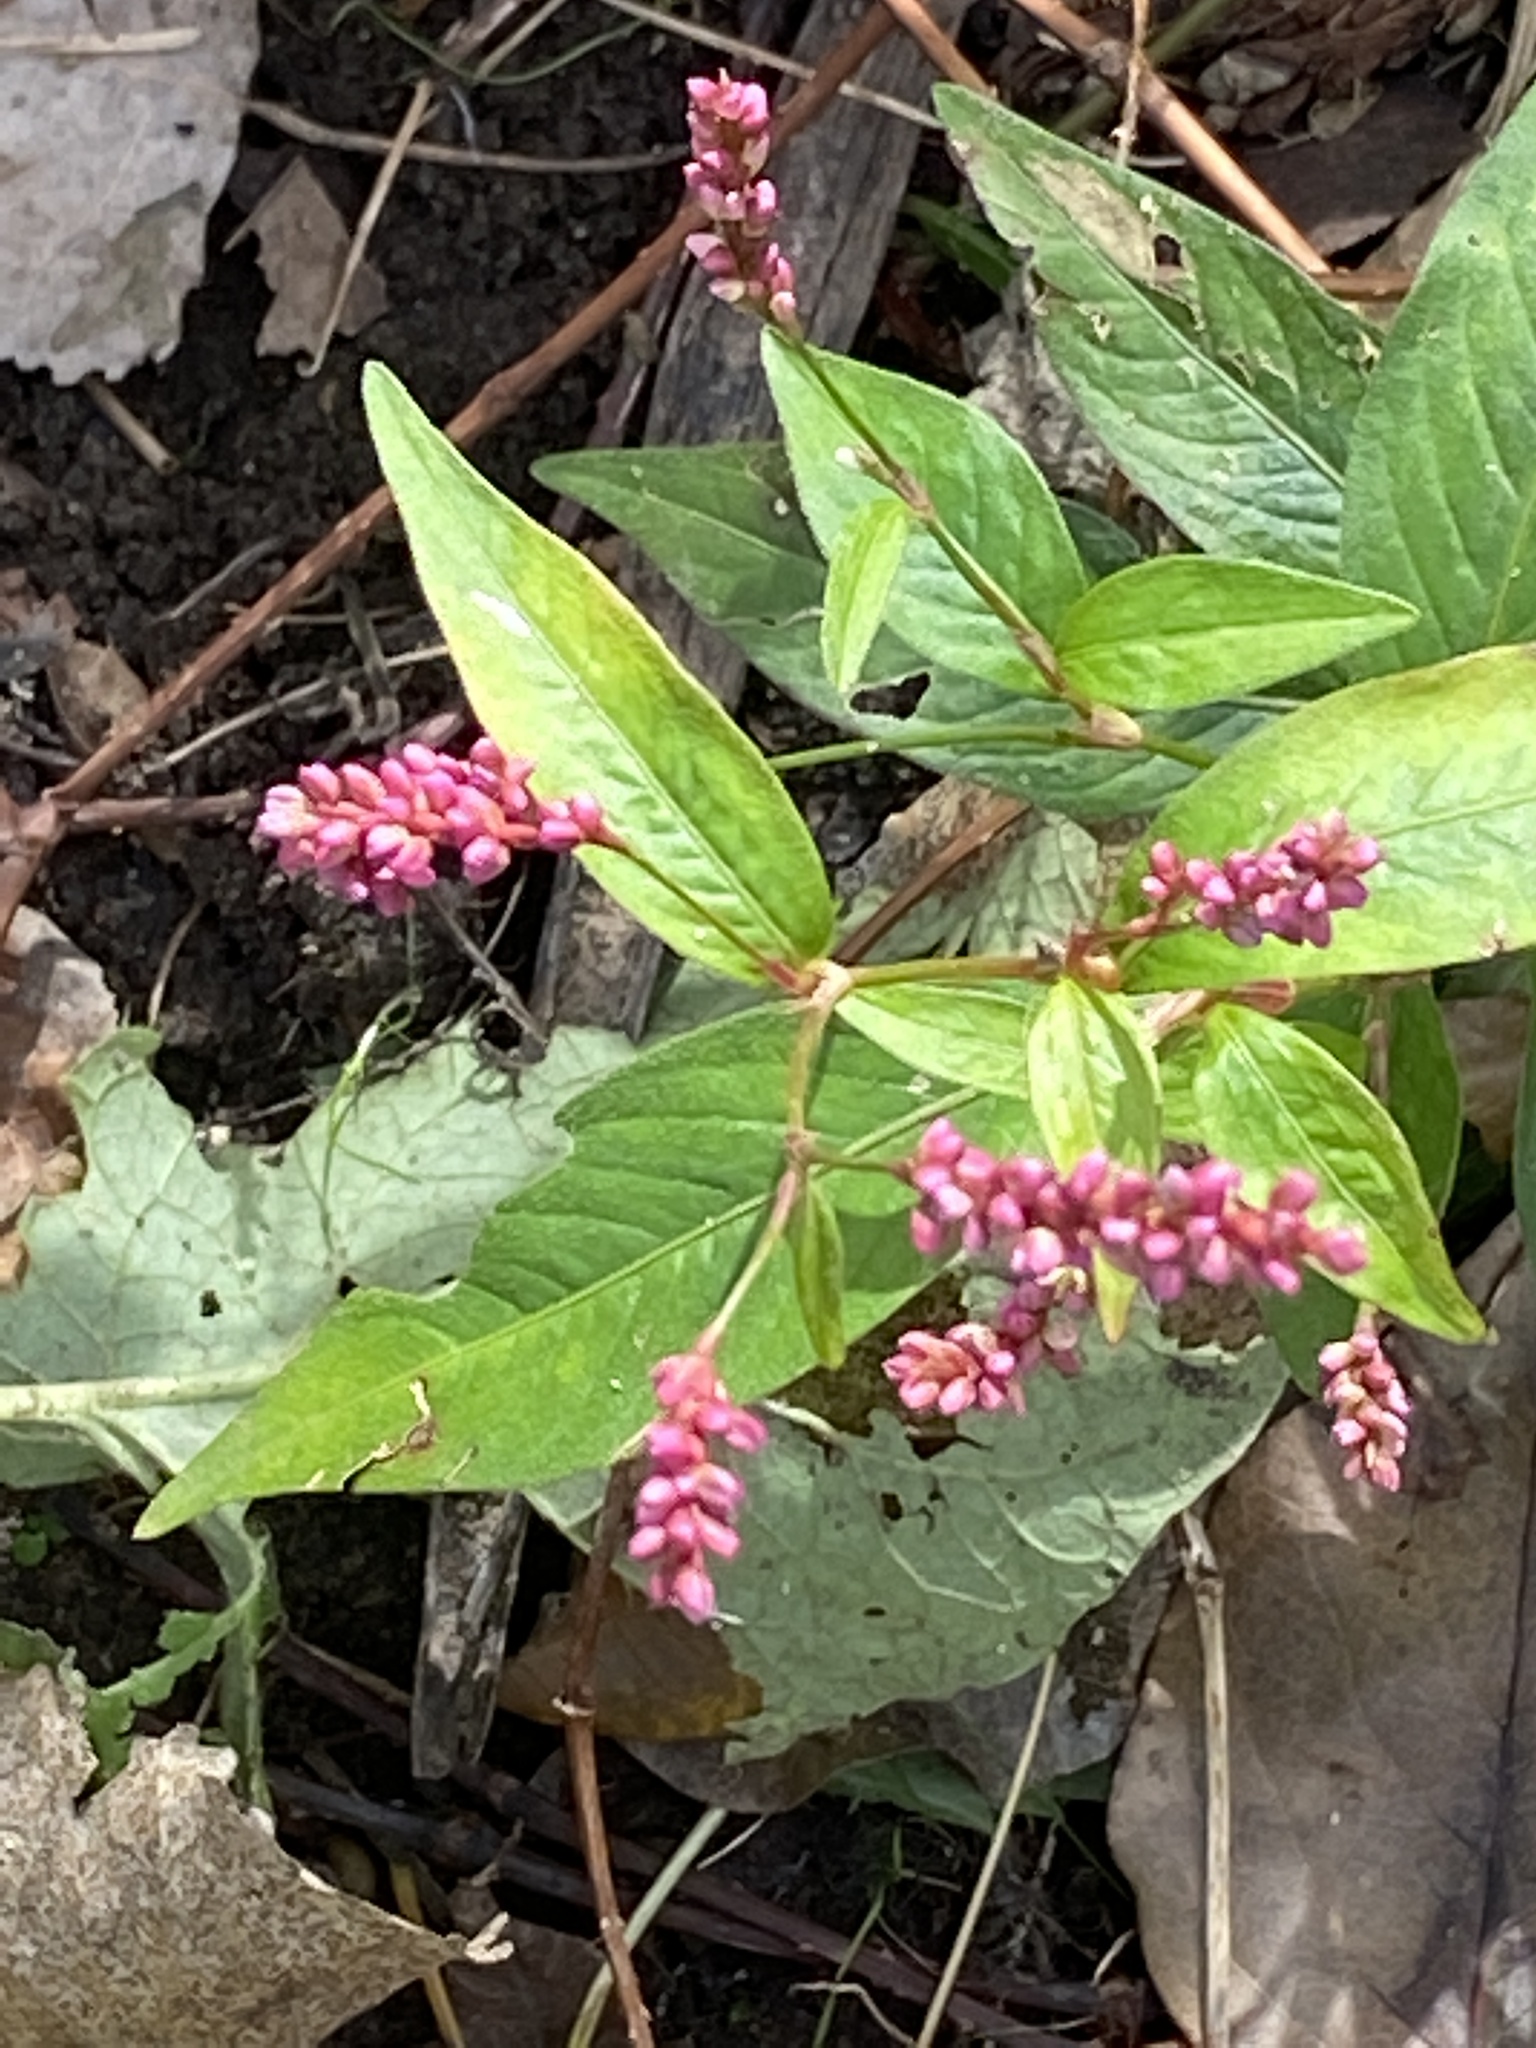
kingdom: Plantae
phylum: Tracheophyta
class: Magnoliopsida
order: Caryophyllales
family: Polygonaceae
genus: Persicaria
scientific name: Persicaria longiseta
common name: Bristly lady's-thumb
